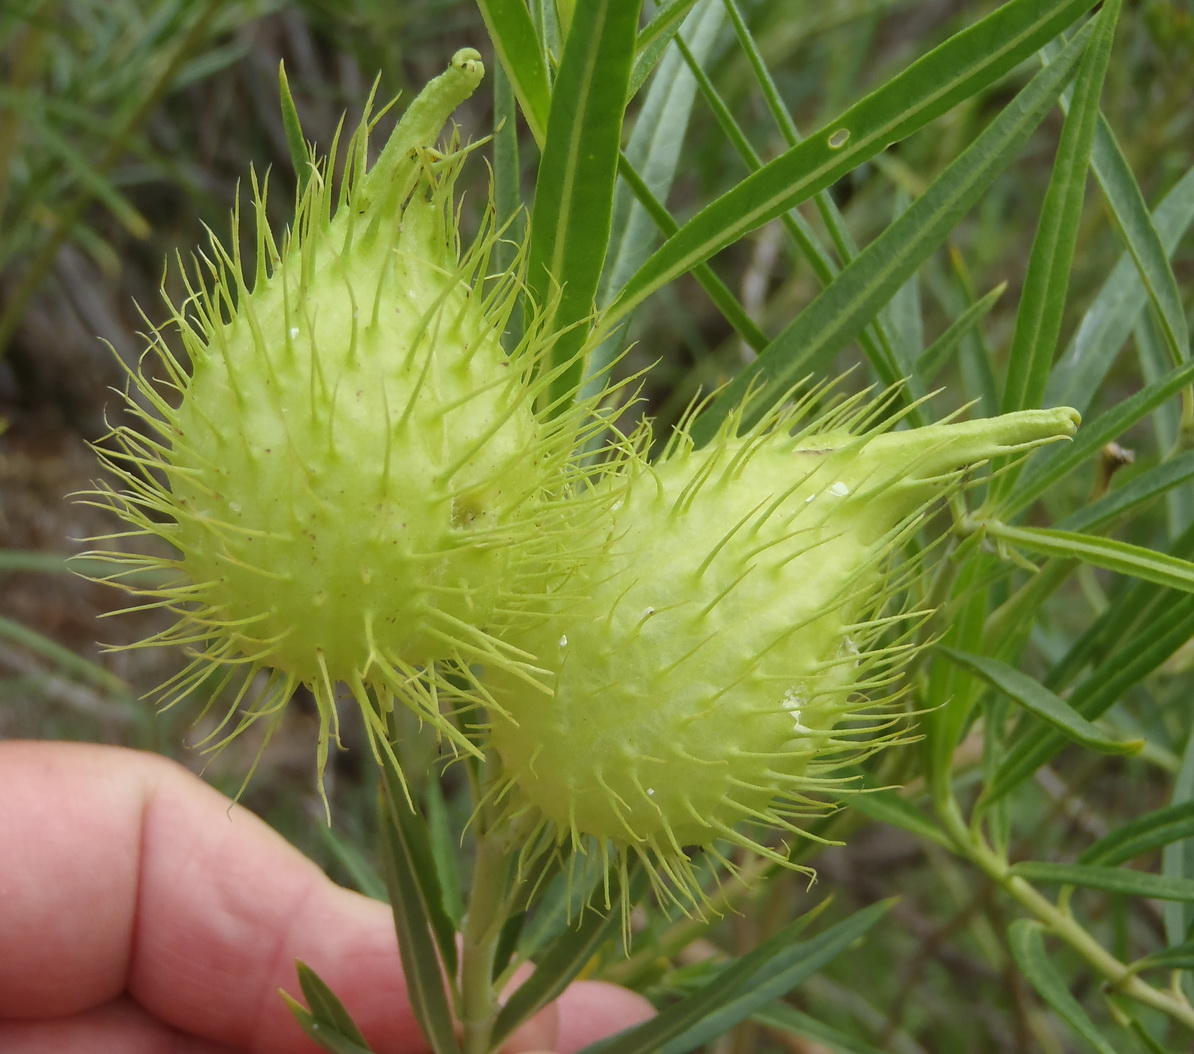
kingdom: Plantae
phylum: Tracheophyta
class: Magnoliopsida
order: Gentianales
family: Apocynaceae
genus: Gomphocarpus
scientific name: Gomphocarpus fruticosus
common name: Milkweed
